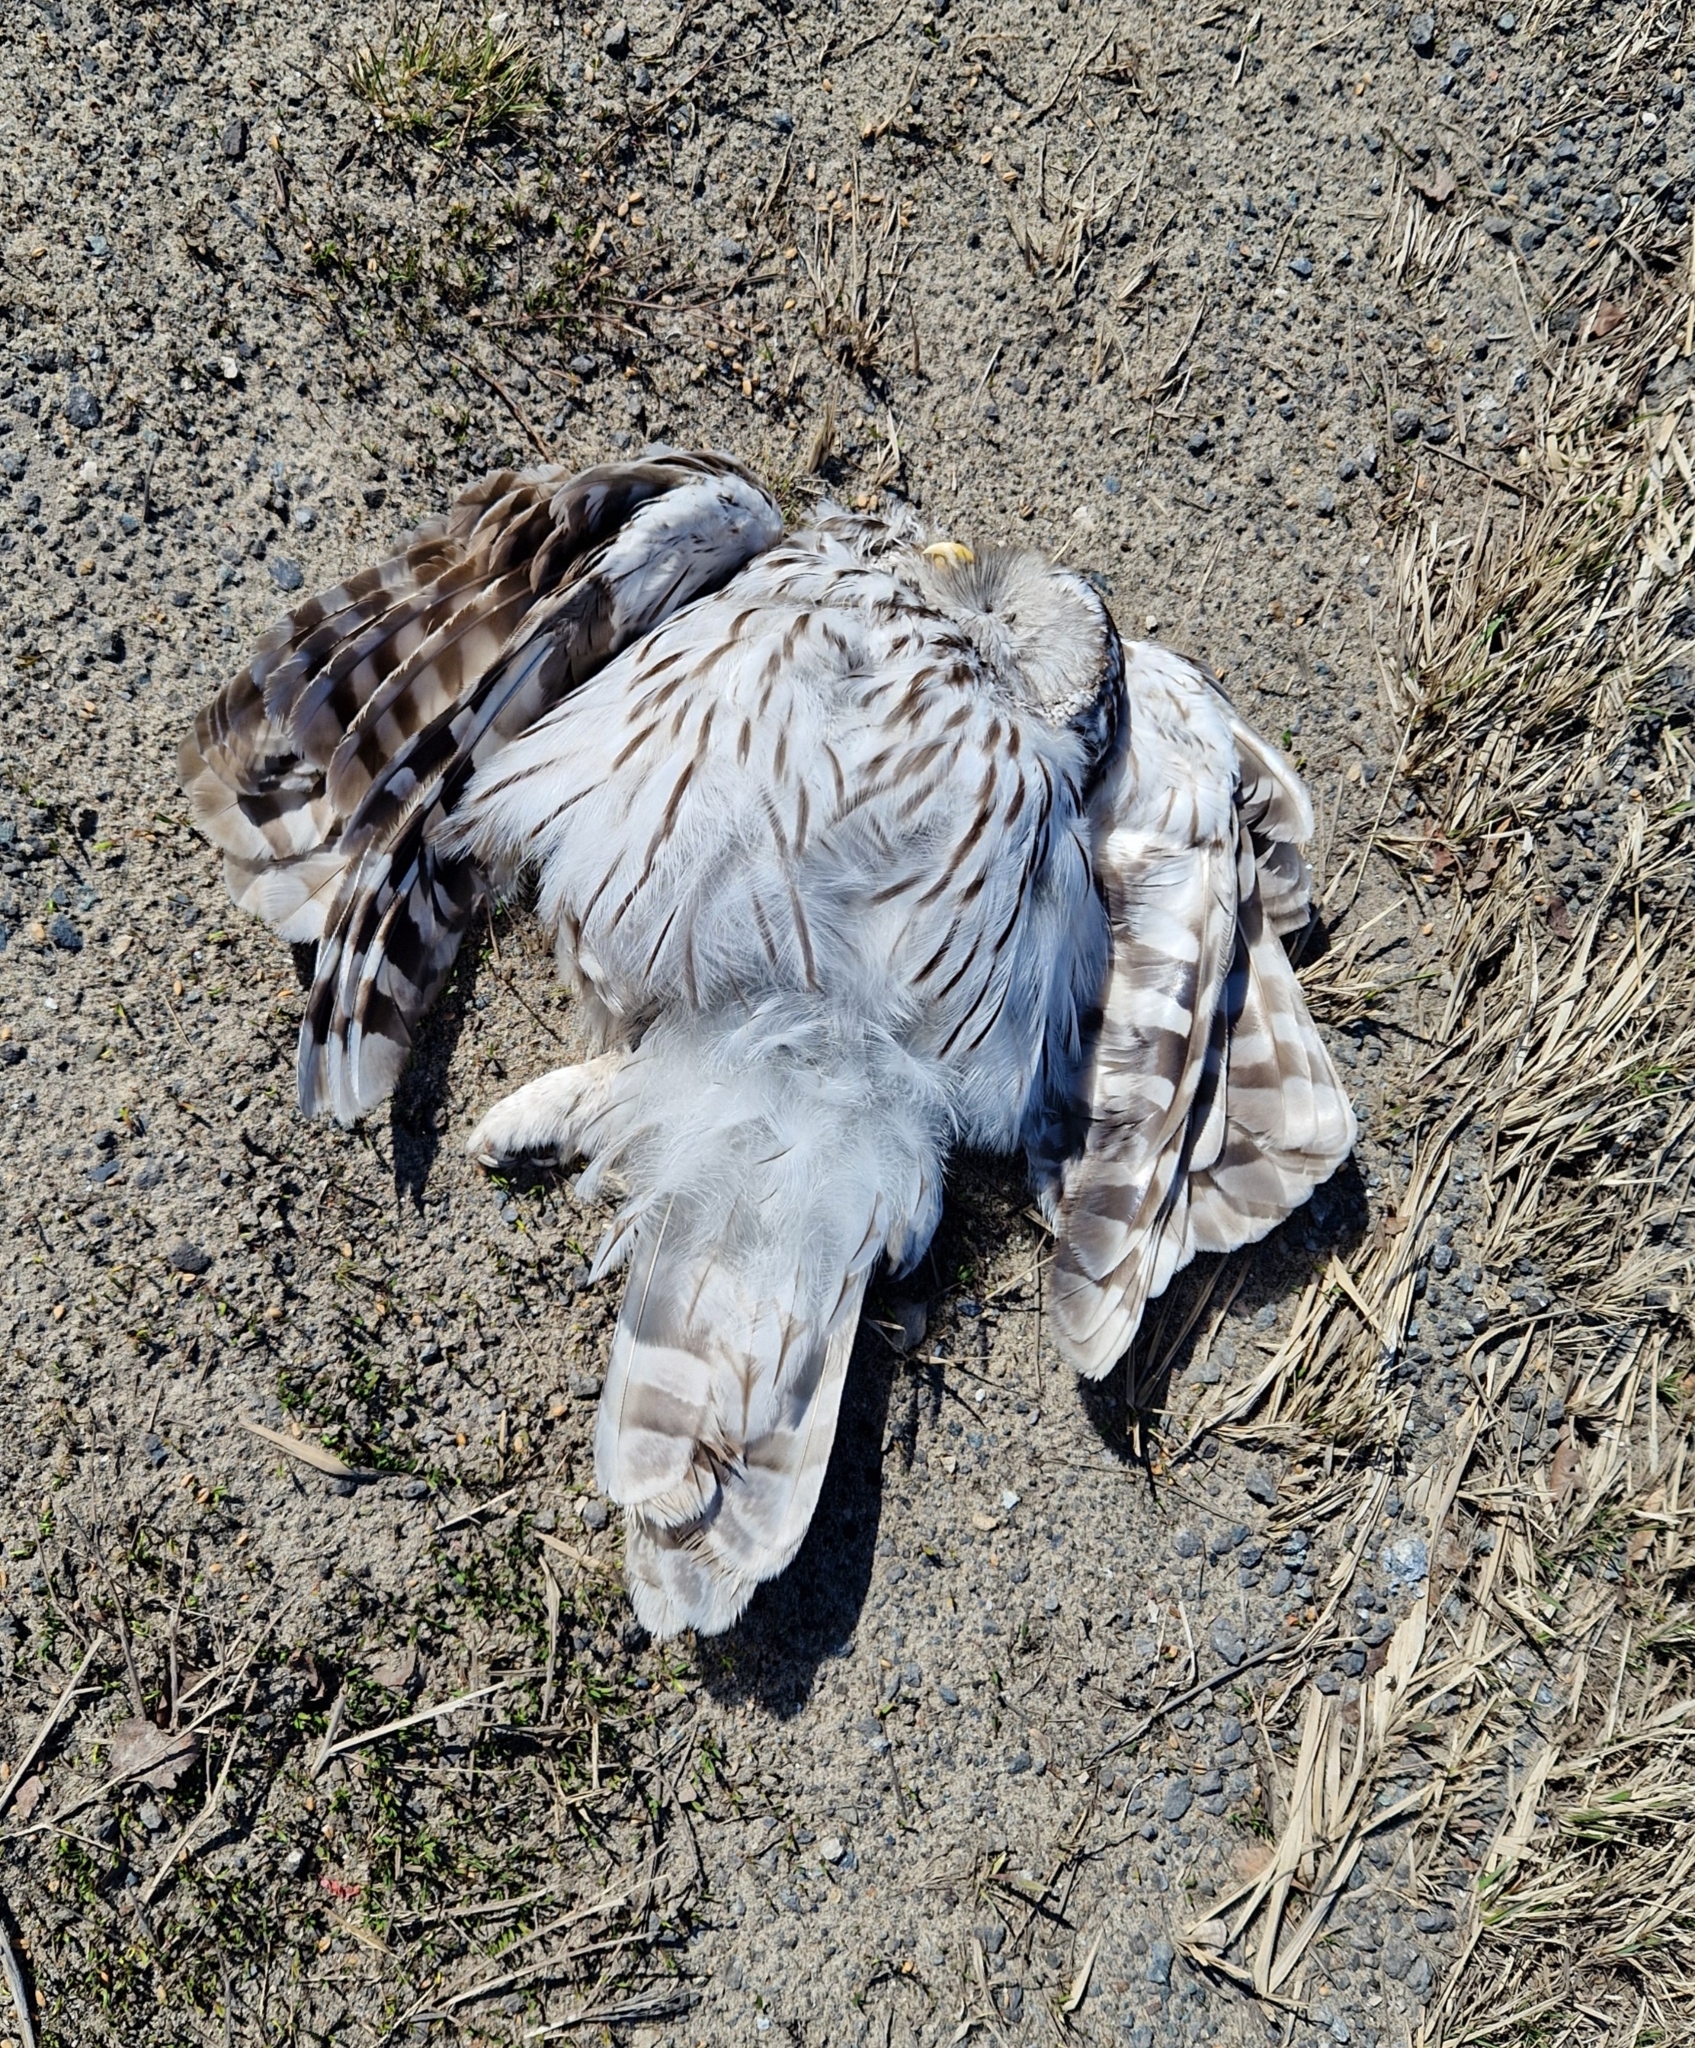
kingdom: Animalia
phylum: Chordata
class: Aves
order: Strigiformes
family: Strigidae
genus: Strix
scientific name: Strix uralensis
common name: Ural owl
